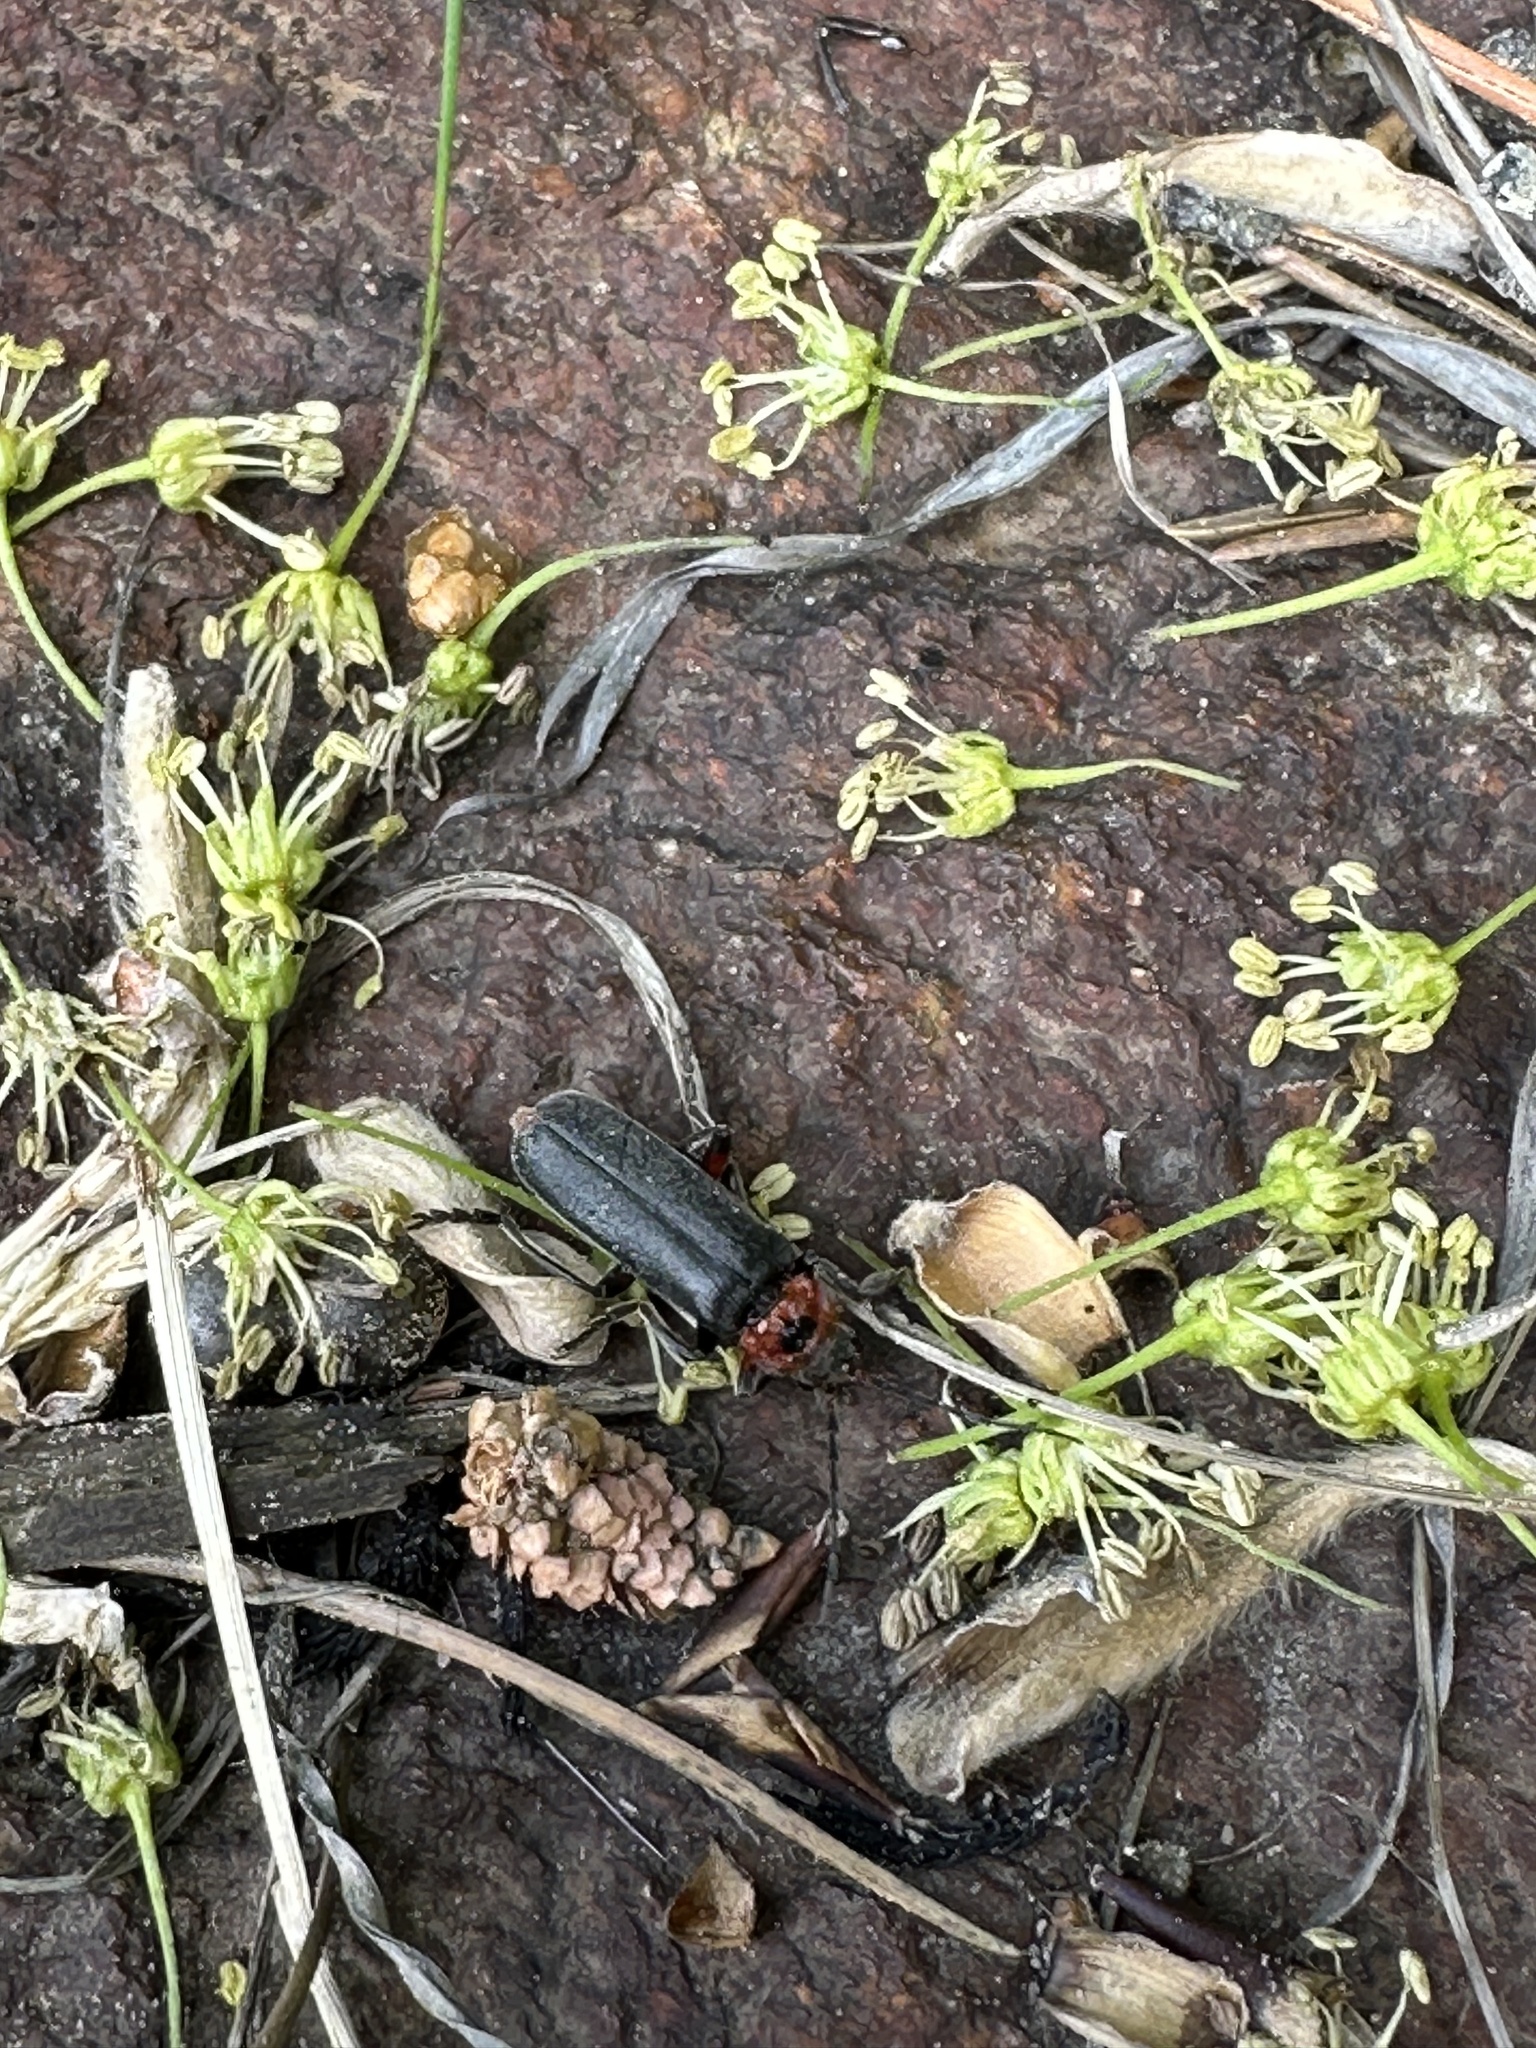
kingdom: Animalia
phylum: Arthropoda
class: Insecta
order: Coleoptera
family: Cantharidae
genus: Cantharis
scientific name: Cantharis rustica
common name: Soldier beetle
